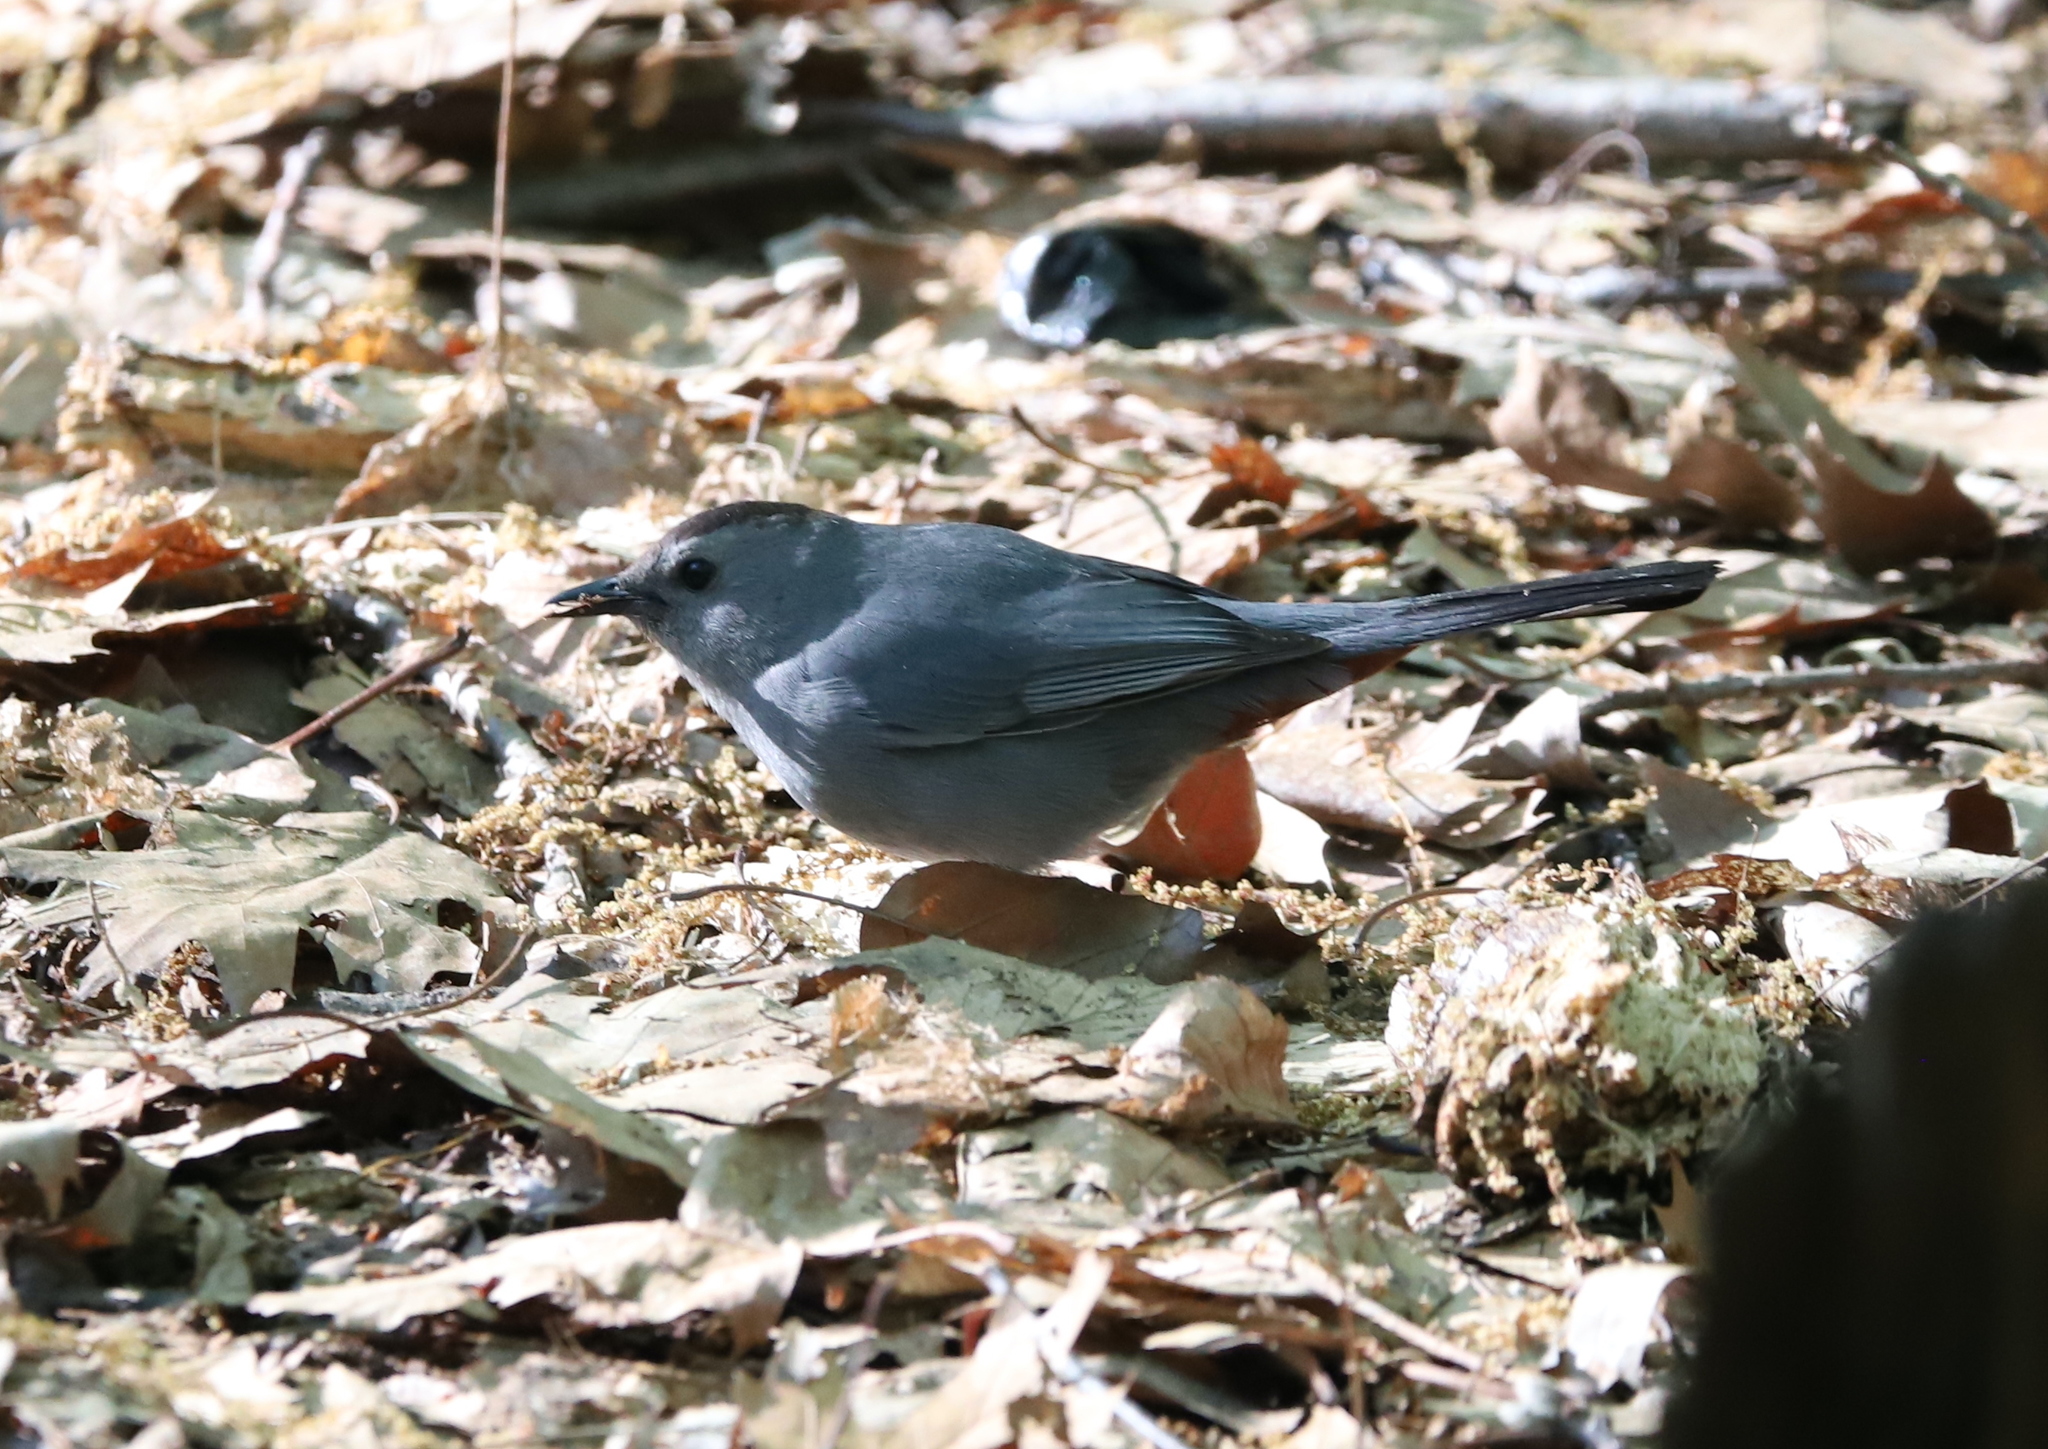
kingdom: Animalia
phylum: Chordata
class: Aves
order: Passeriformes
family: Mimidae
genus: Dumetella
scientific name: Dumetella carolinensis
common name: Gray catbird
